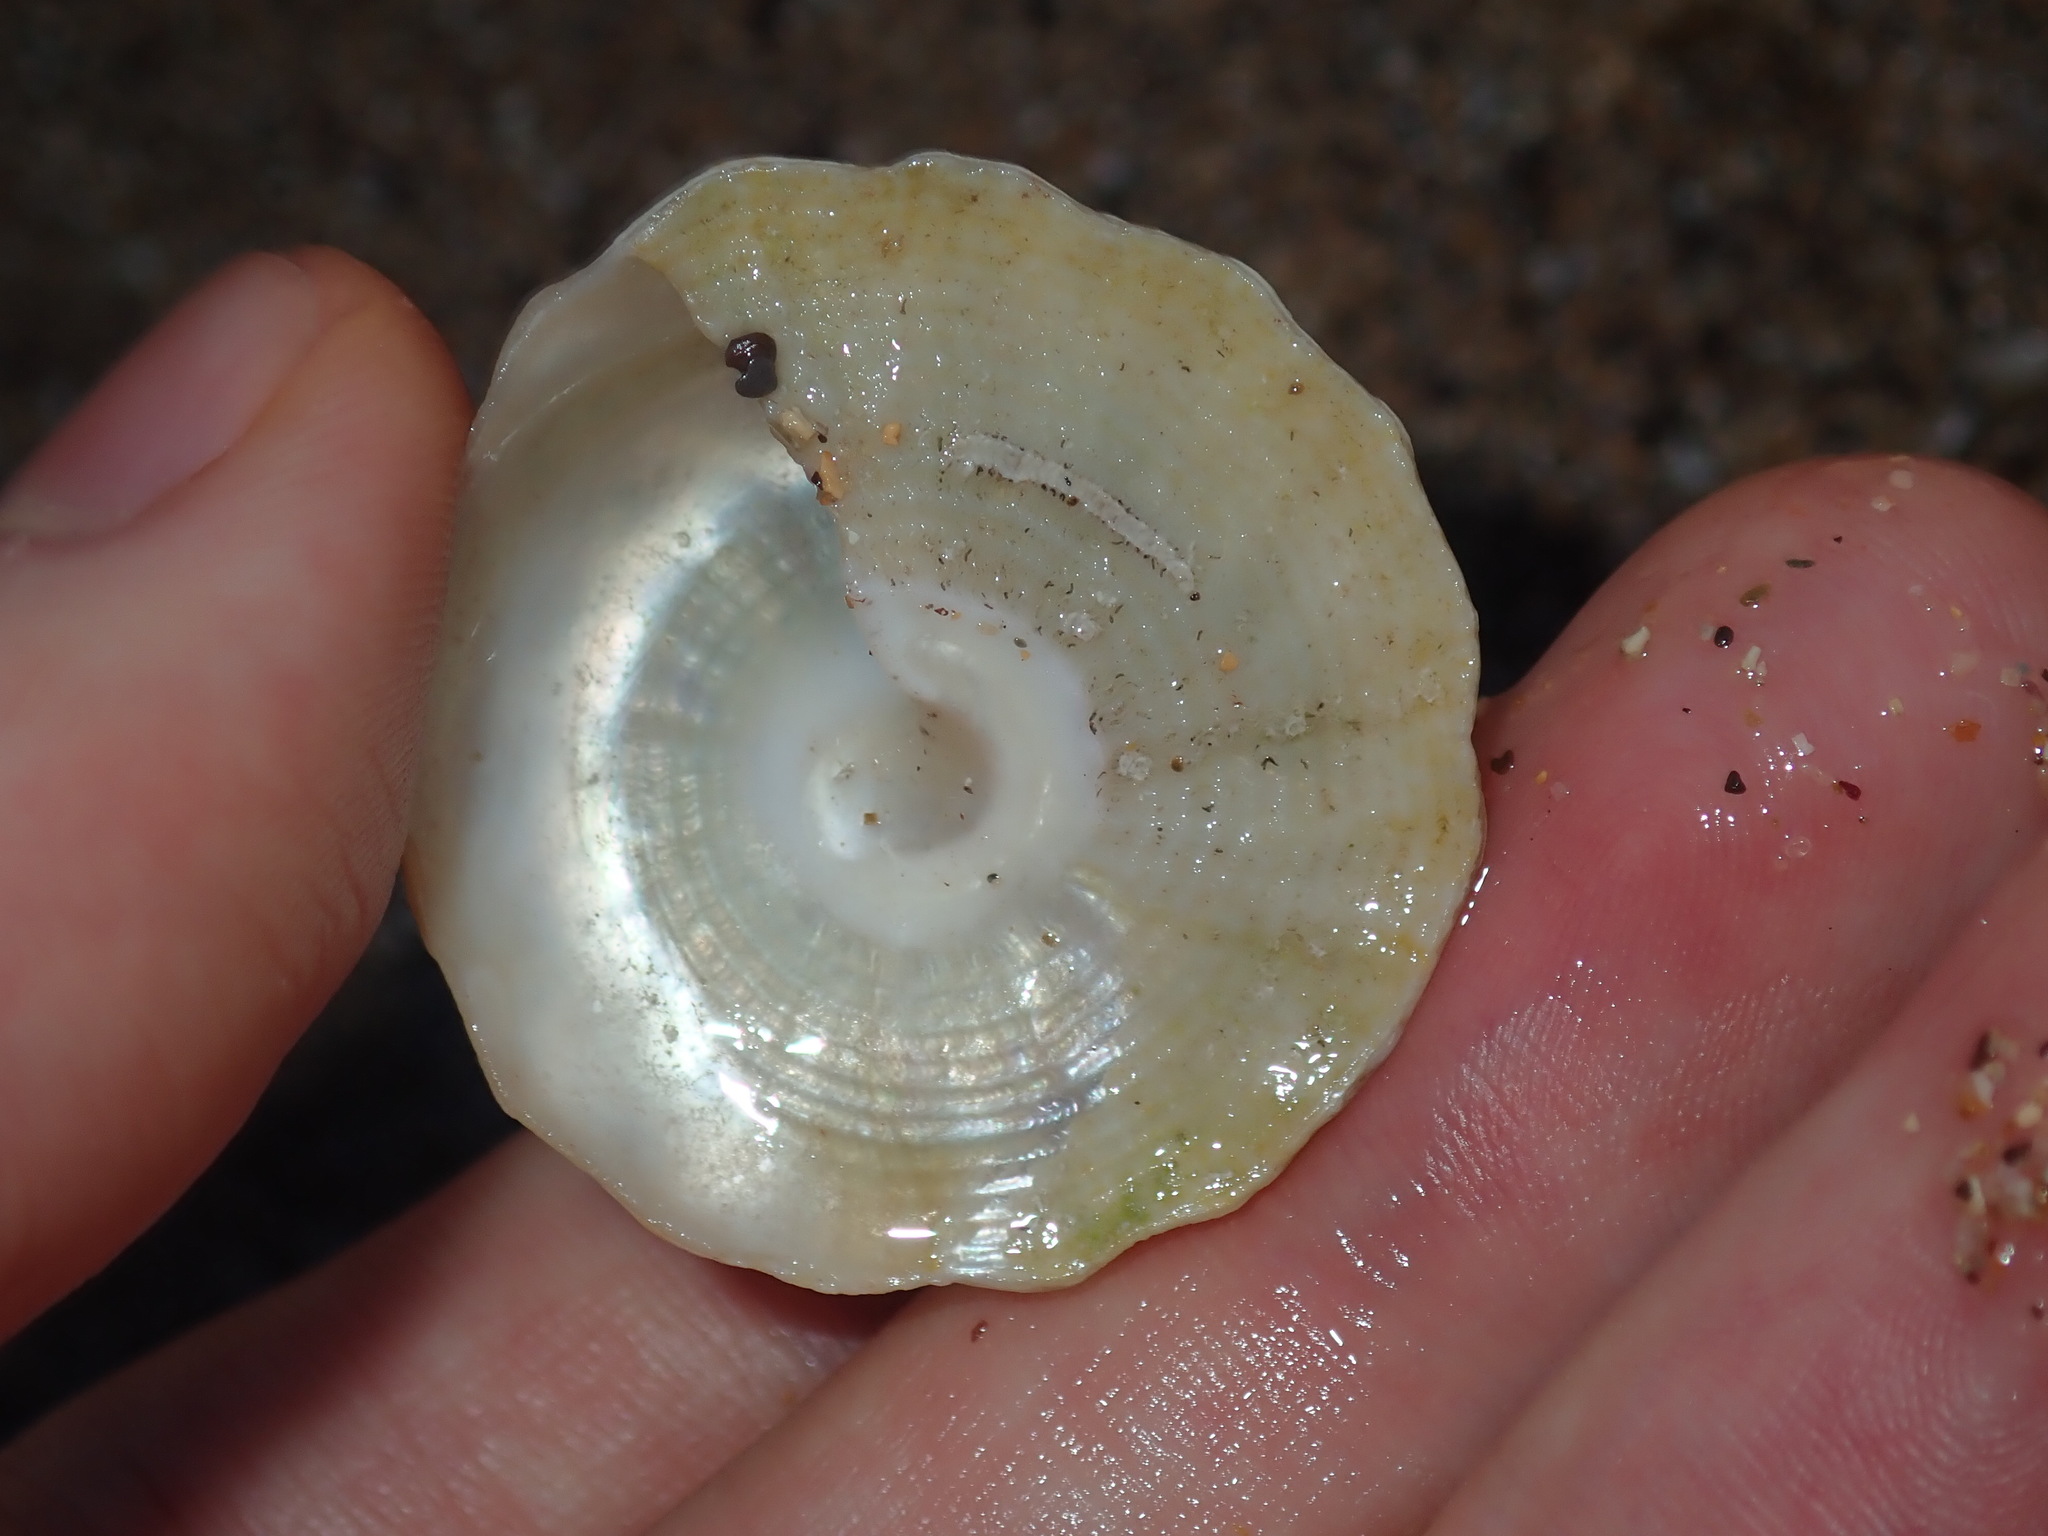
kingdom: Animalia
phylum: Mollusca
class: Gastropoda
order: Trochida
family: Turbinidae
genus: Astralium
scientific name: Astralium tentoriiforme
